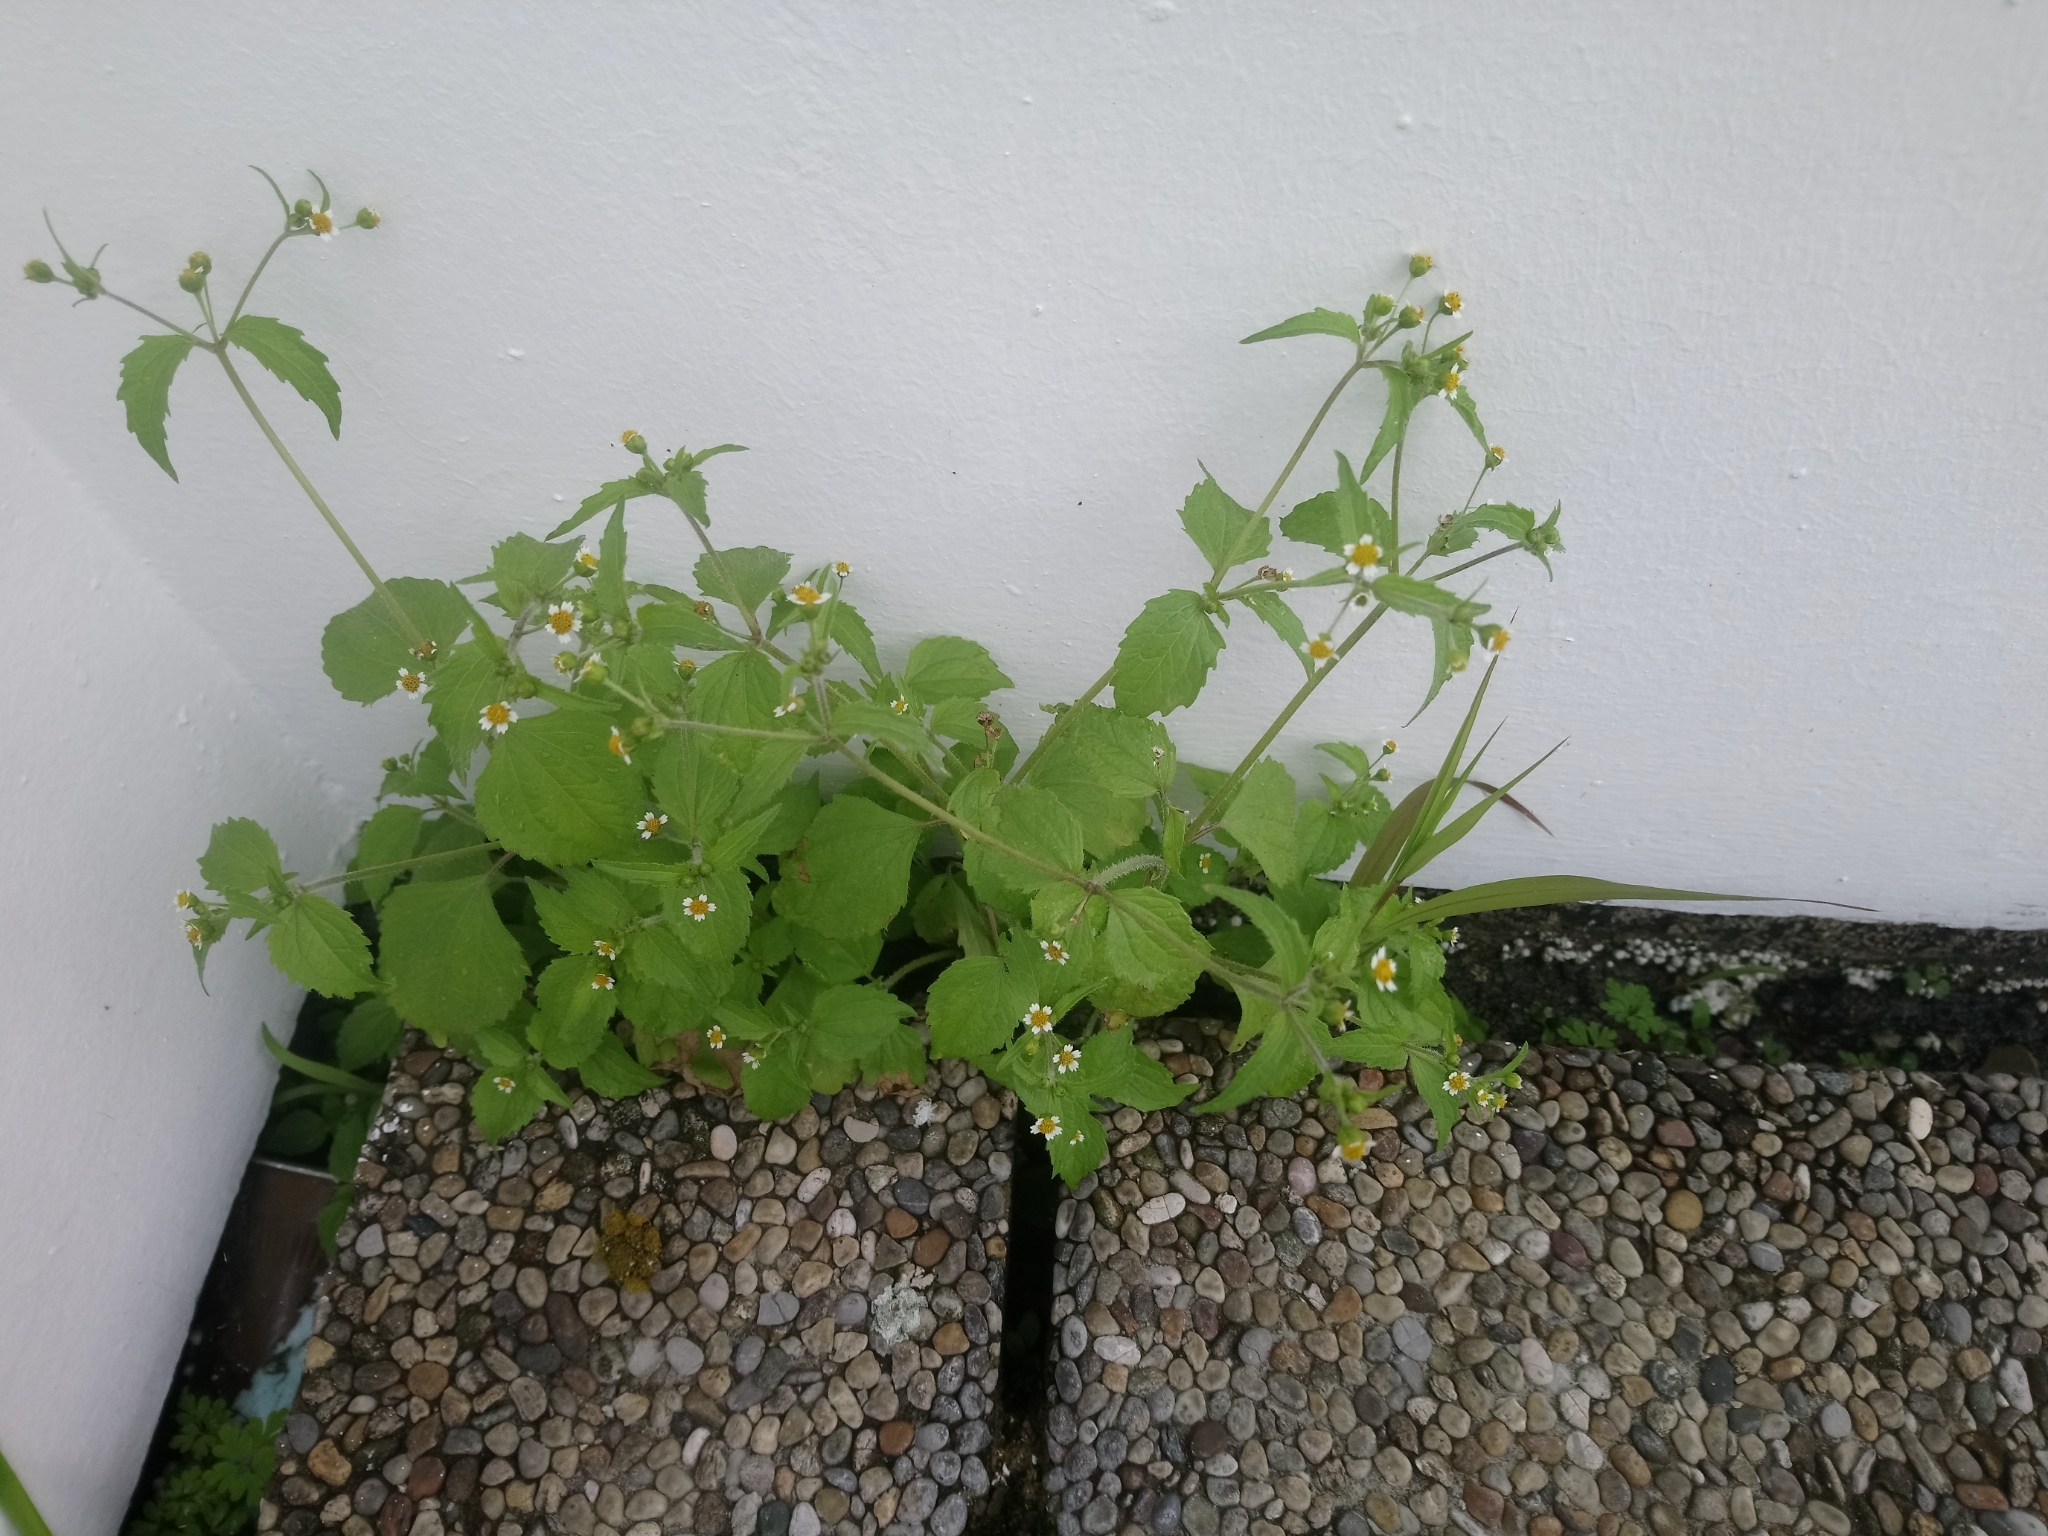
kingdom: Plantae
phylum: Tracheophyta
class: Magnoliopsida
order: Asterales
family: Asteraceae
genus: Galinsoga
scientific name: Galinsoga quadriradiata
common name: Shaggy soldier
